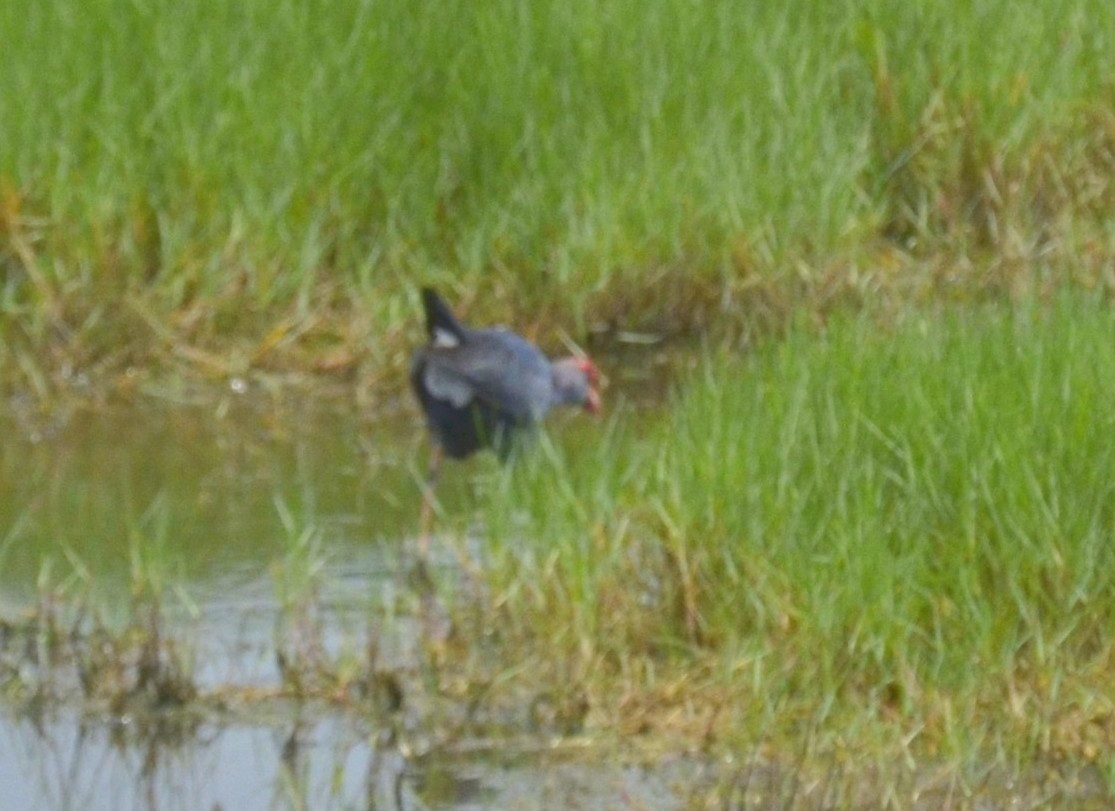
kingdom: Animalia
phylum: Chordata
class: Aves
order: Gruiformes
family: Rallidae
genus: Porphyrio
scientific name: Porphyrio porphyrio
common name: Purple swamphen
